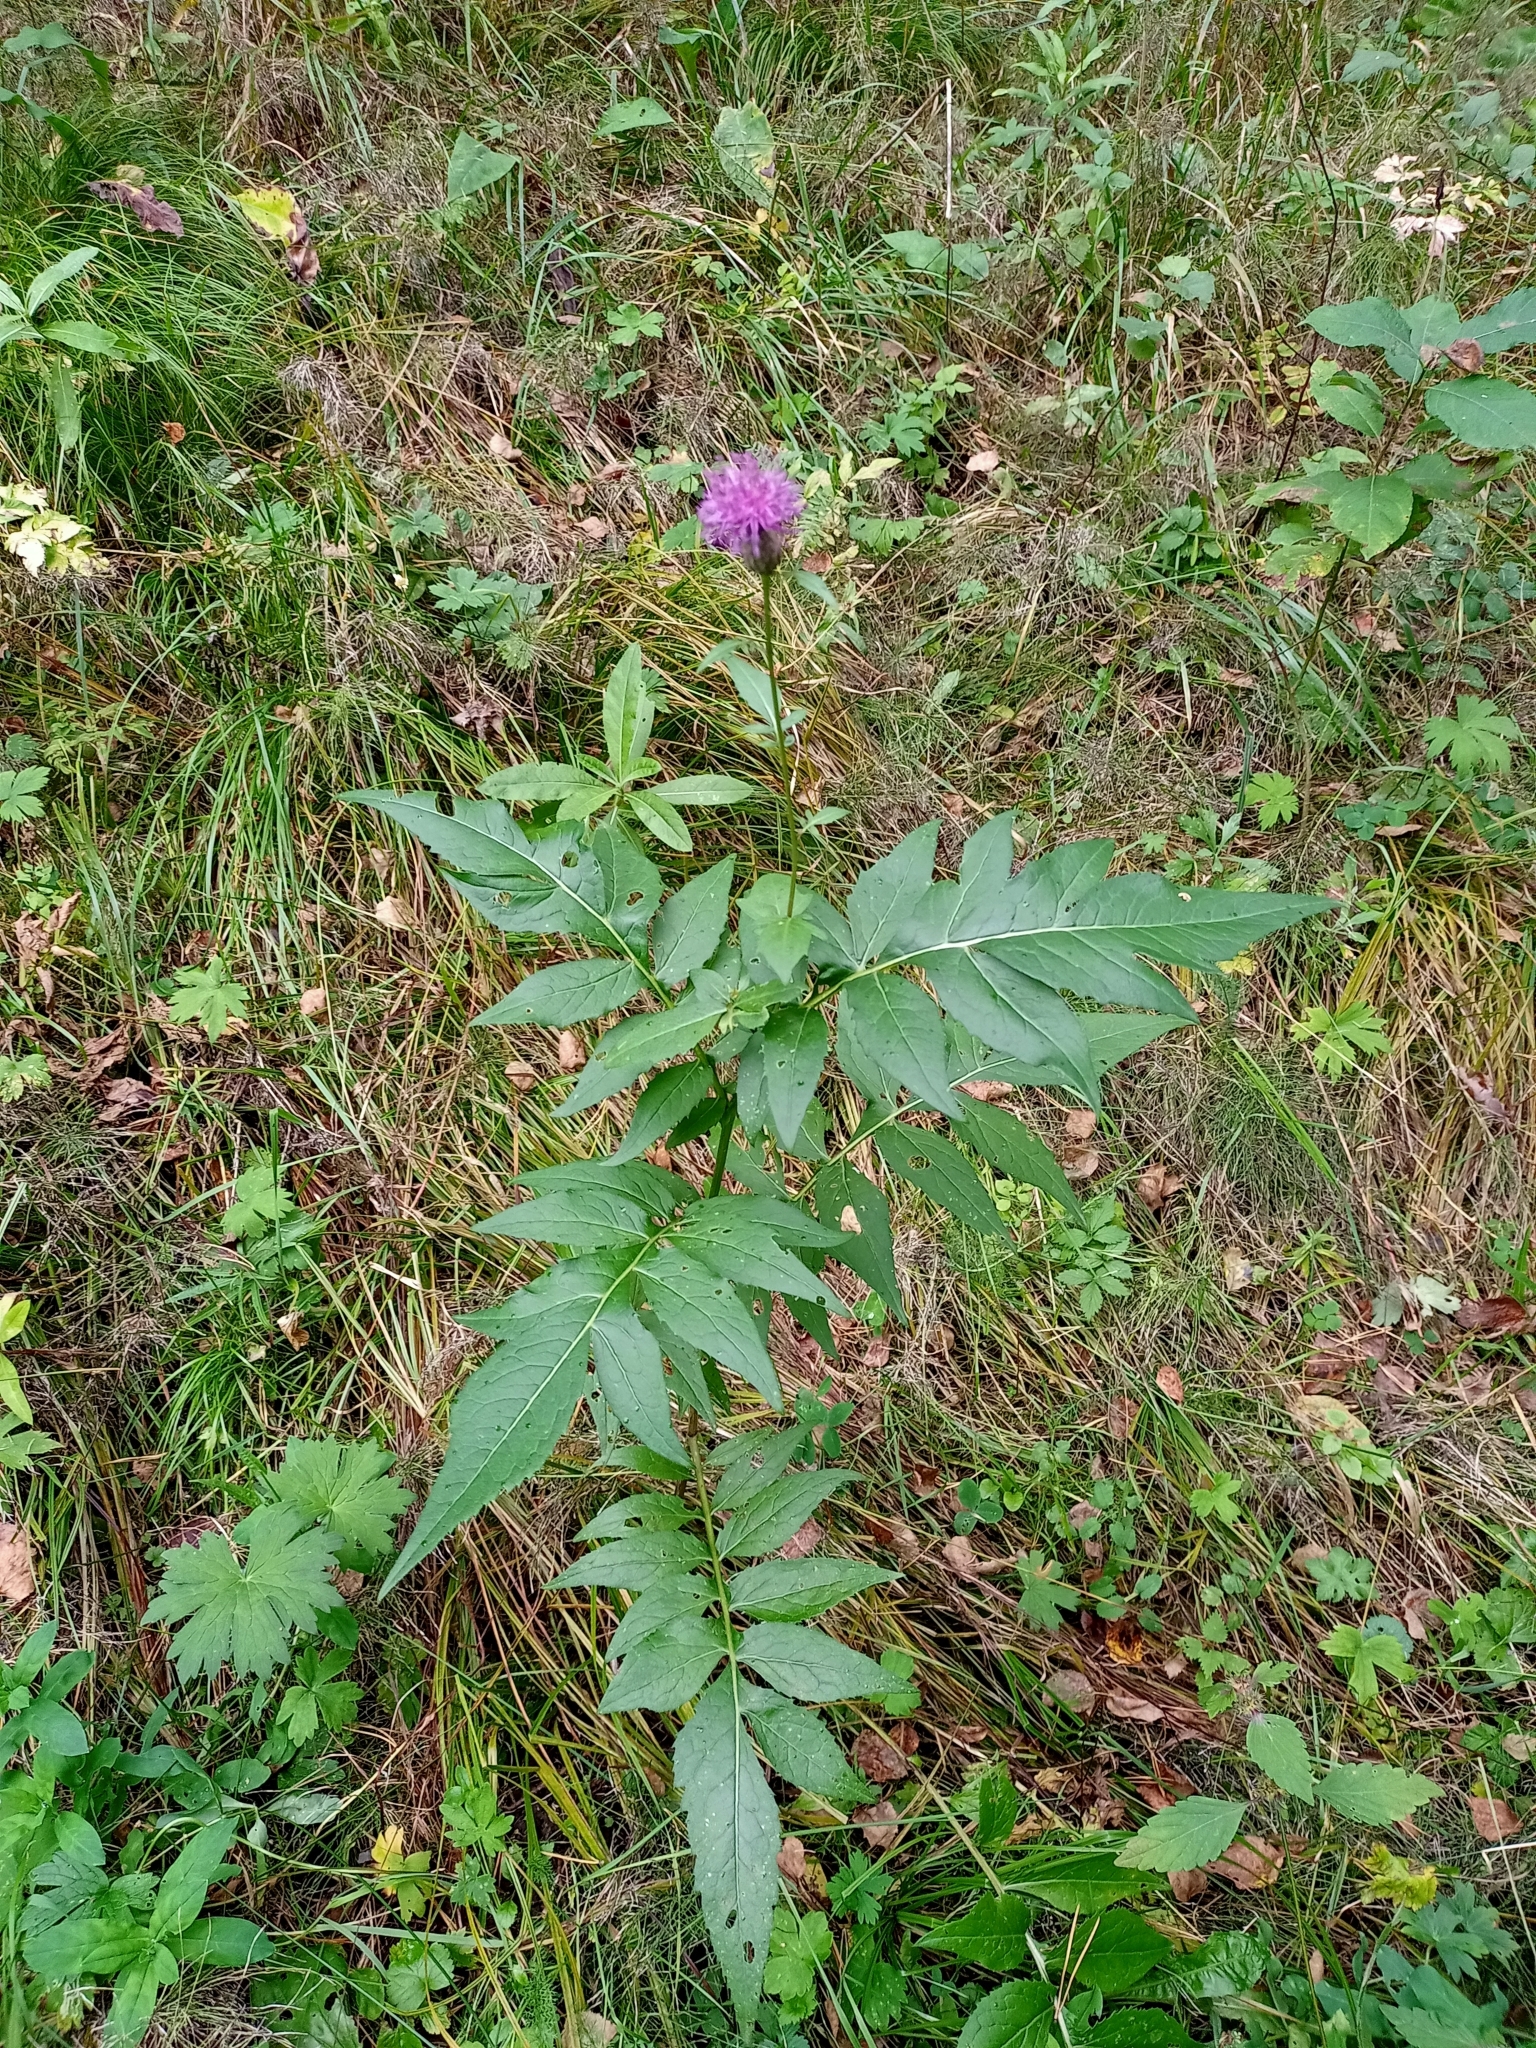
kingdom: Plantae
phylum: Tracheophyta
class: Magnoliopsida
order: Asterales
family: Asteraceae
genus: Serratula
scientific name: Serratula coronata
